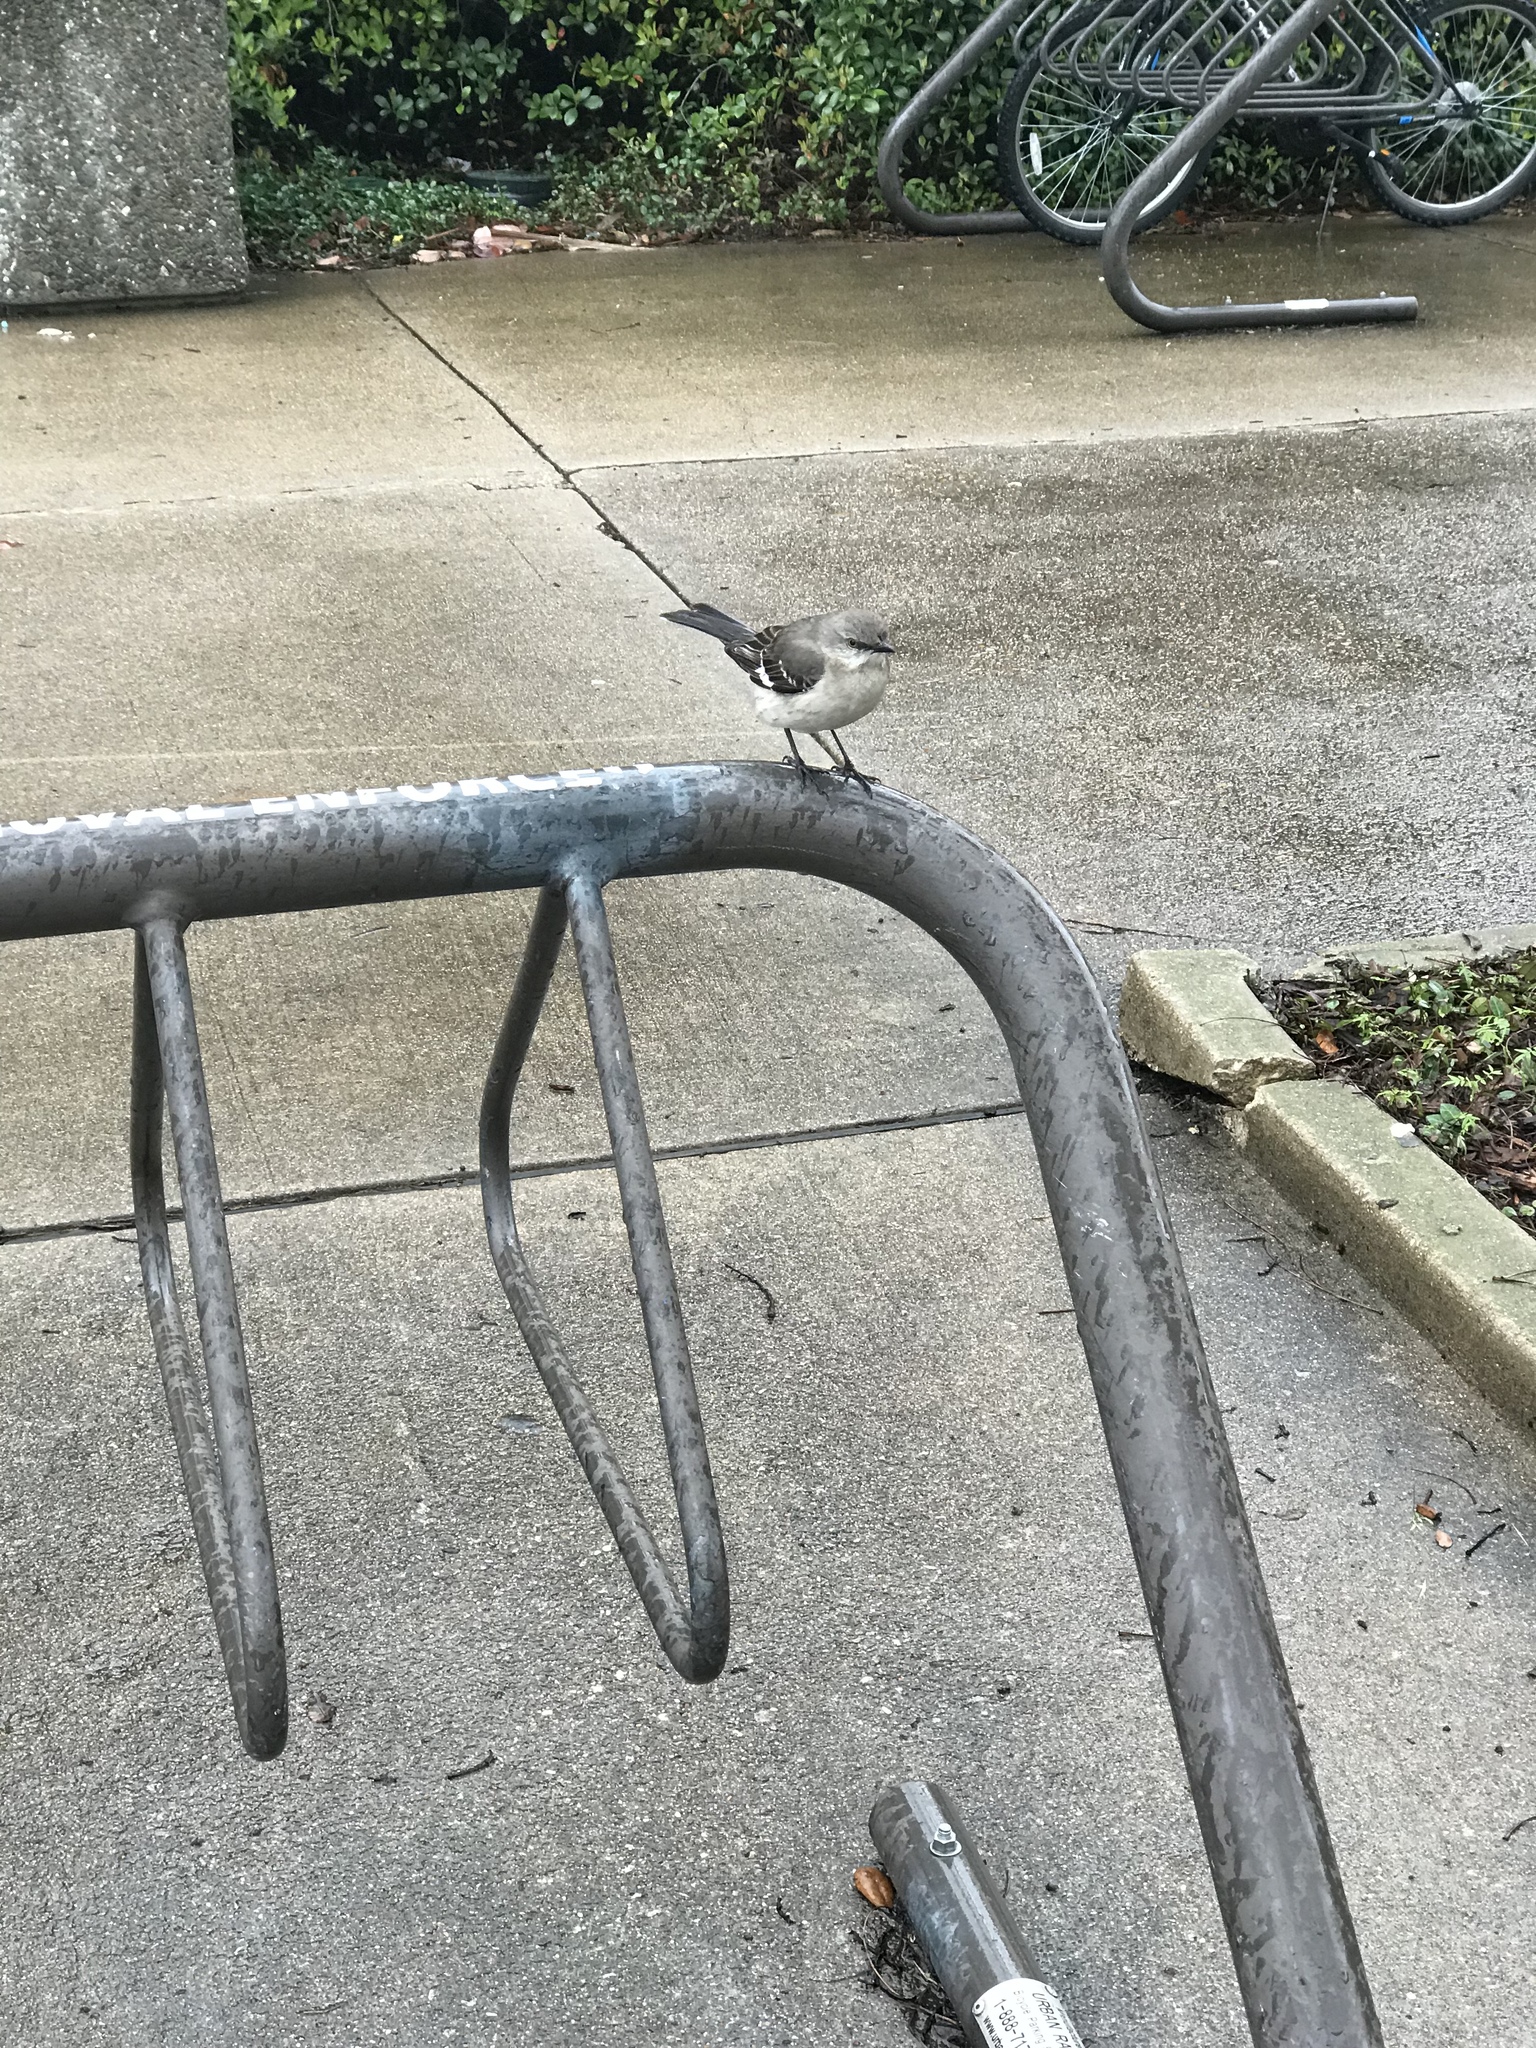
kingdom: Animalia
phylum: Chordata
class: Aves
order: Passeriformes
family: Mimidae
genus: Mimus
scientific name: Mimus polyglottos
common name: Northern mockingbird
